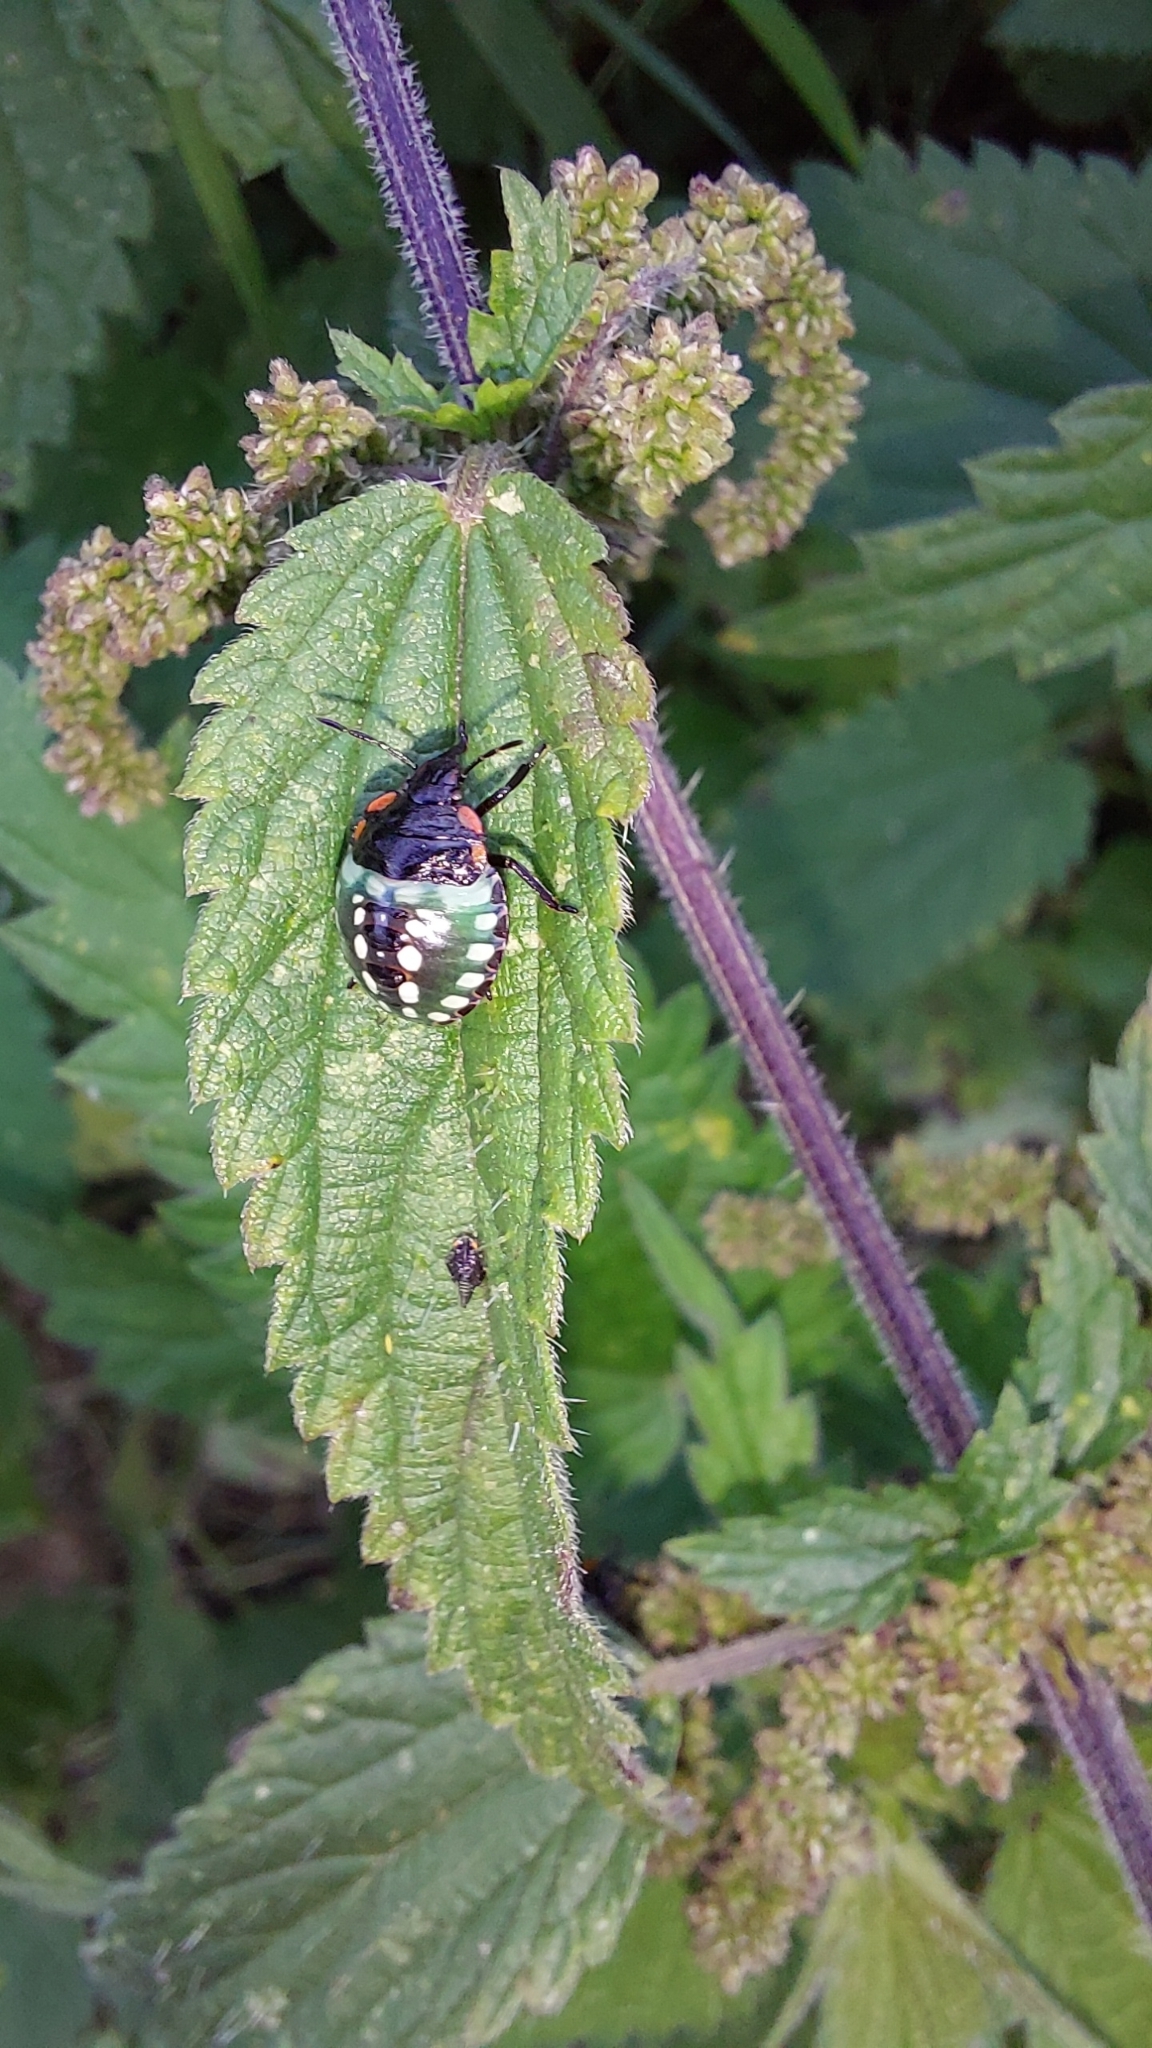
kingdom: Animalia
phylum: Arthropoda
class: Insecta
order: Hemiptera
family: Pentatomidae
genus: Nezara
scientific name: Nezara viridula
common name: Southern green stink bug
